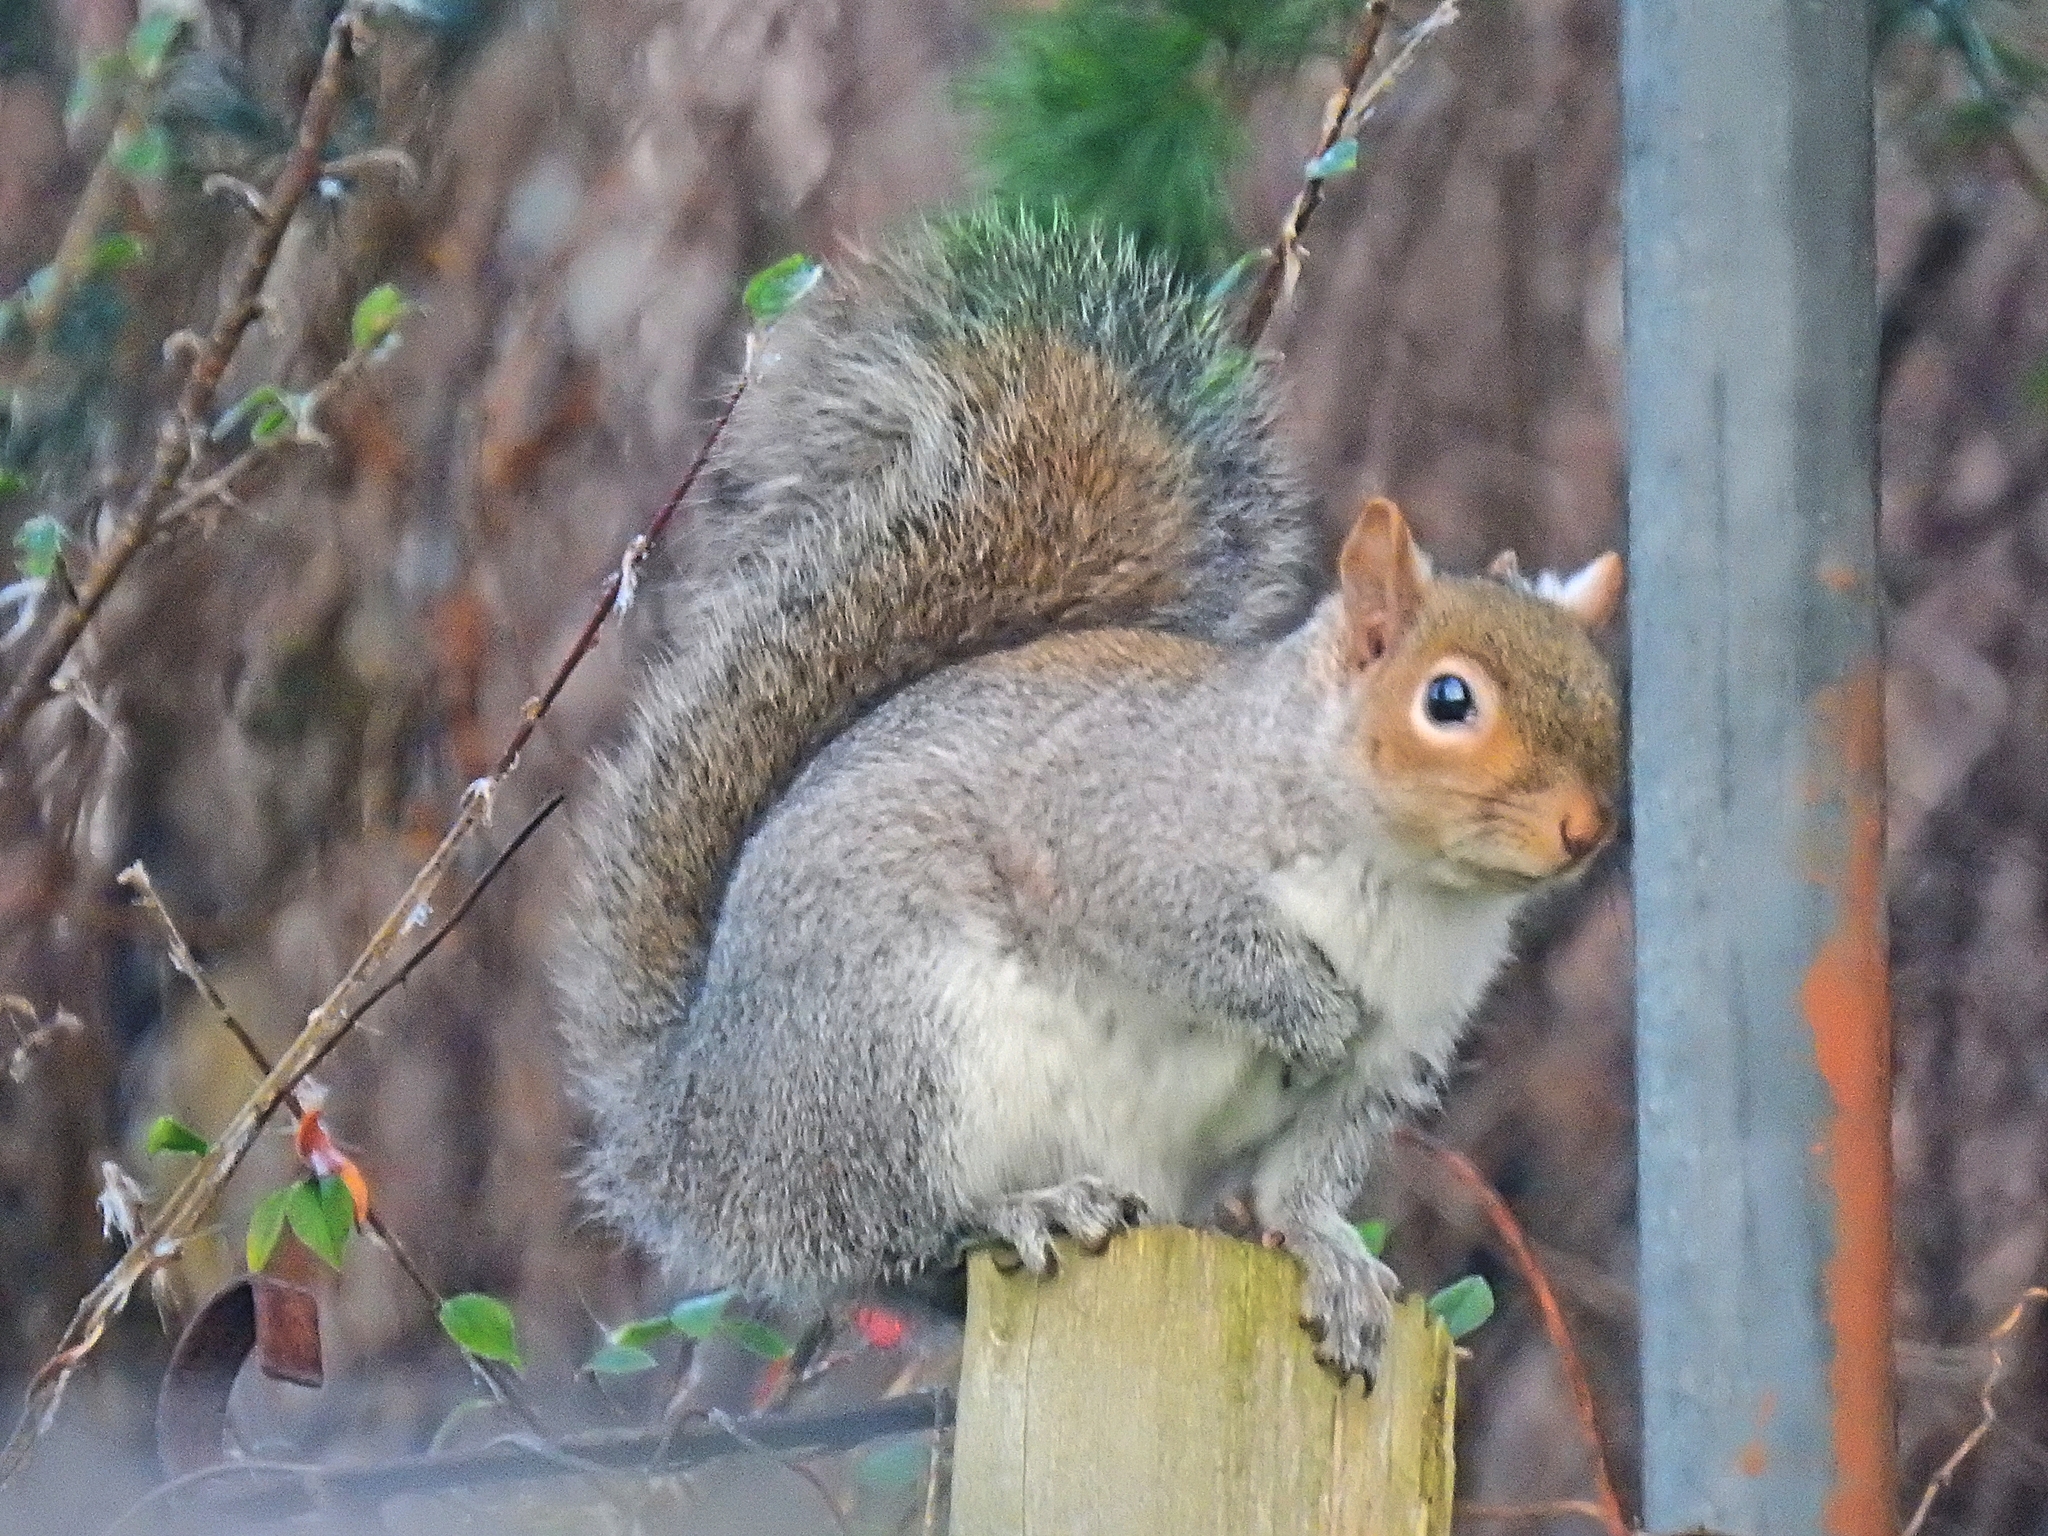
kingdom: Animalia
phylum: Chordata
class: Mammalia
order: Rodentia
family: Sciuridae
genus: Sciurus
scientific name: Sciurus carolinensis
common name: Eastern gray squirrel
